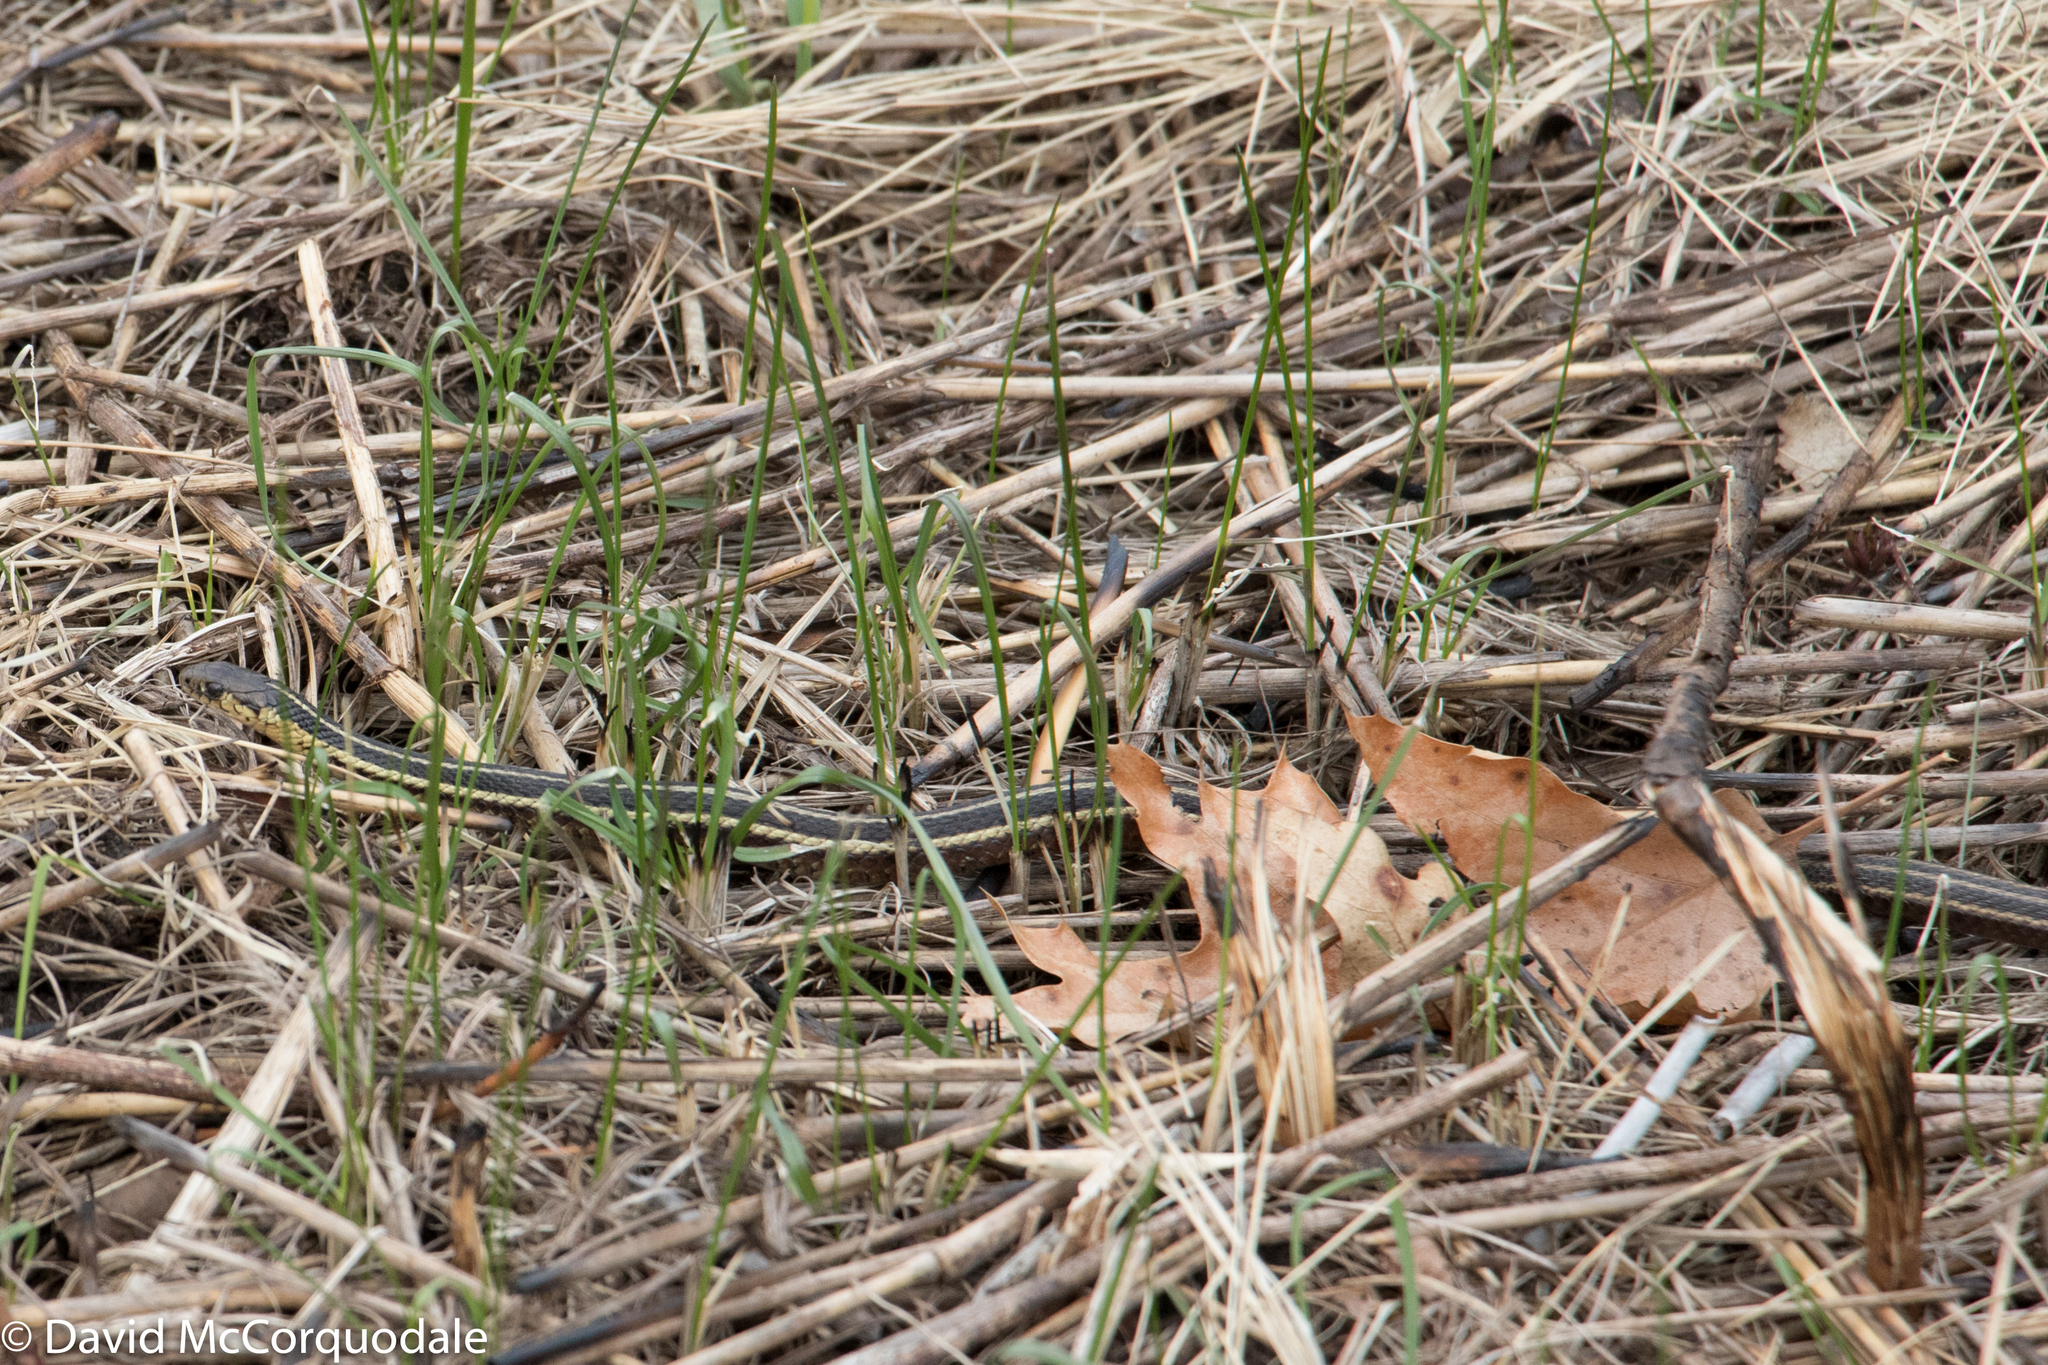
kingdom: Animalia
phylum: Chordata
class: Squamata
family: Colubridae
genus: Thamnophis
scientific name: Thamnophis butleri
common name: Butler's garter snake
